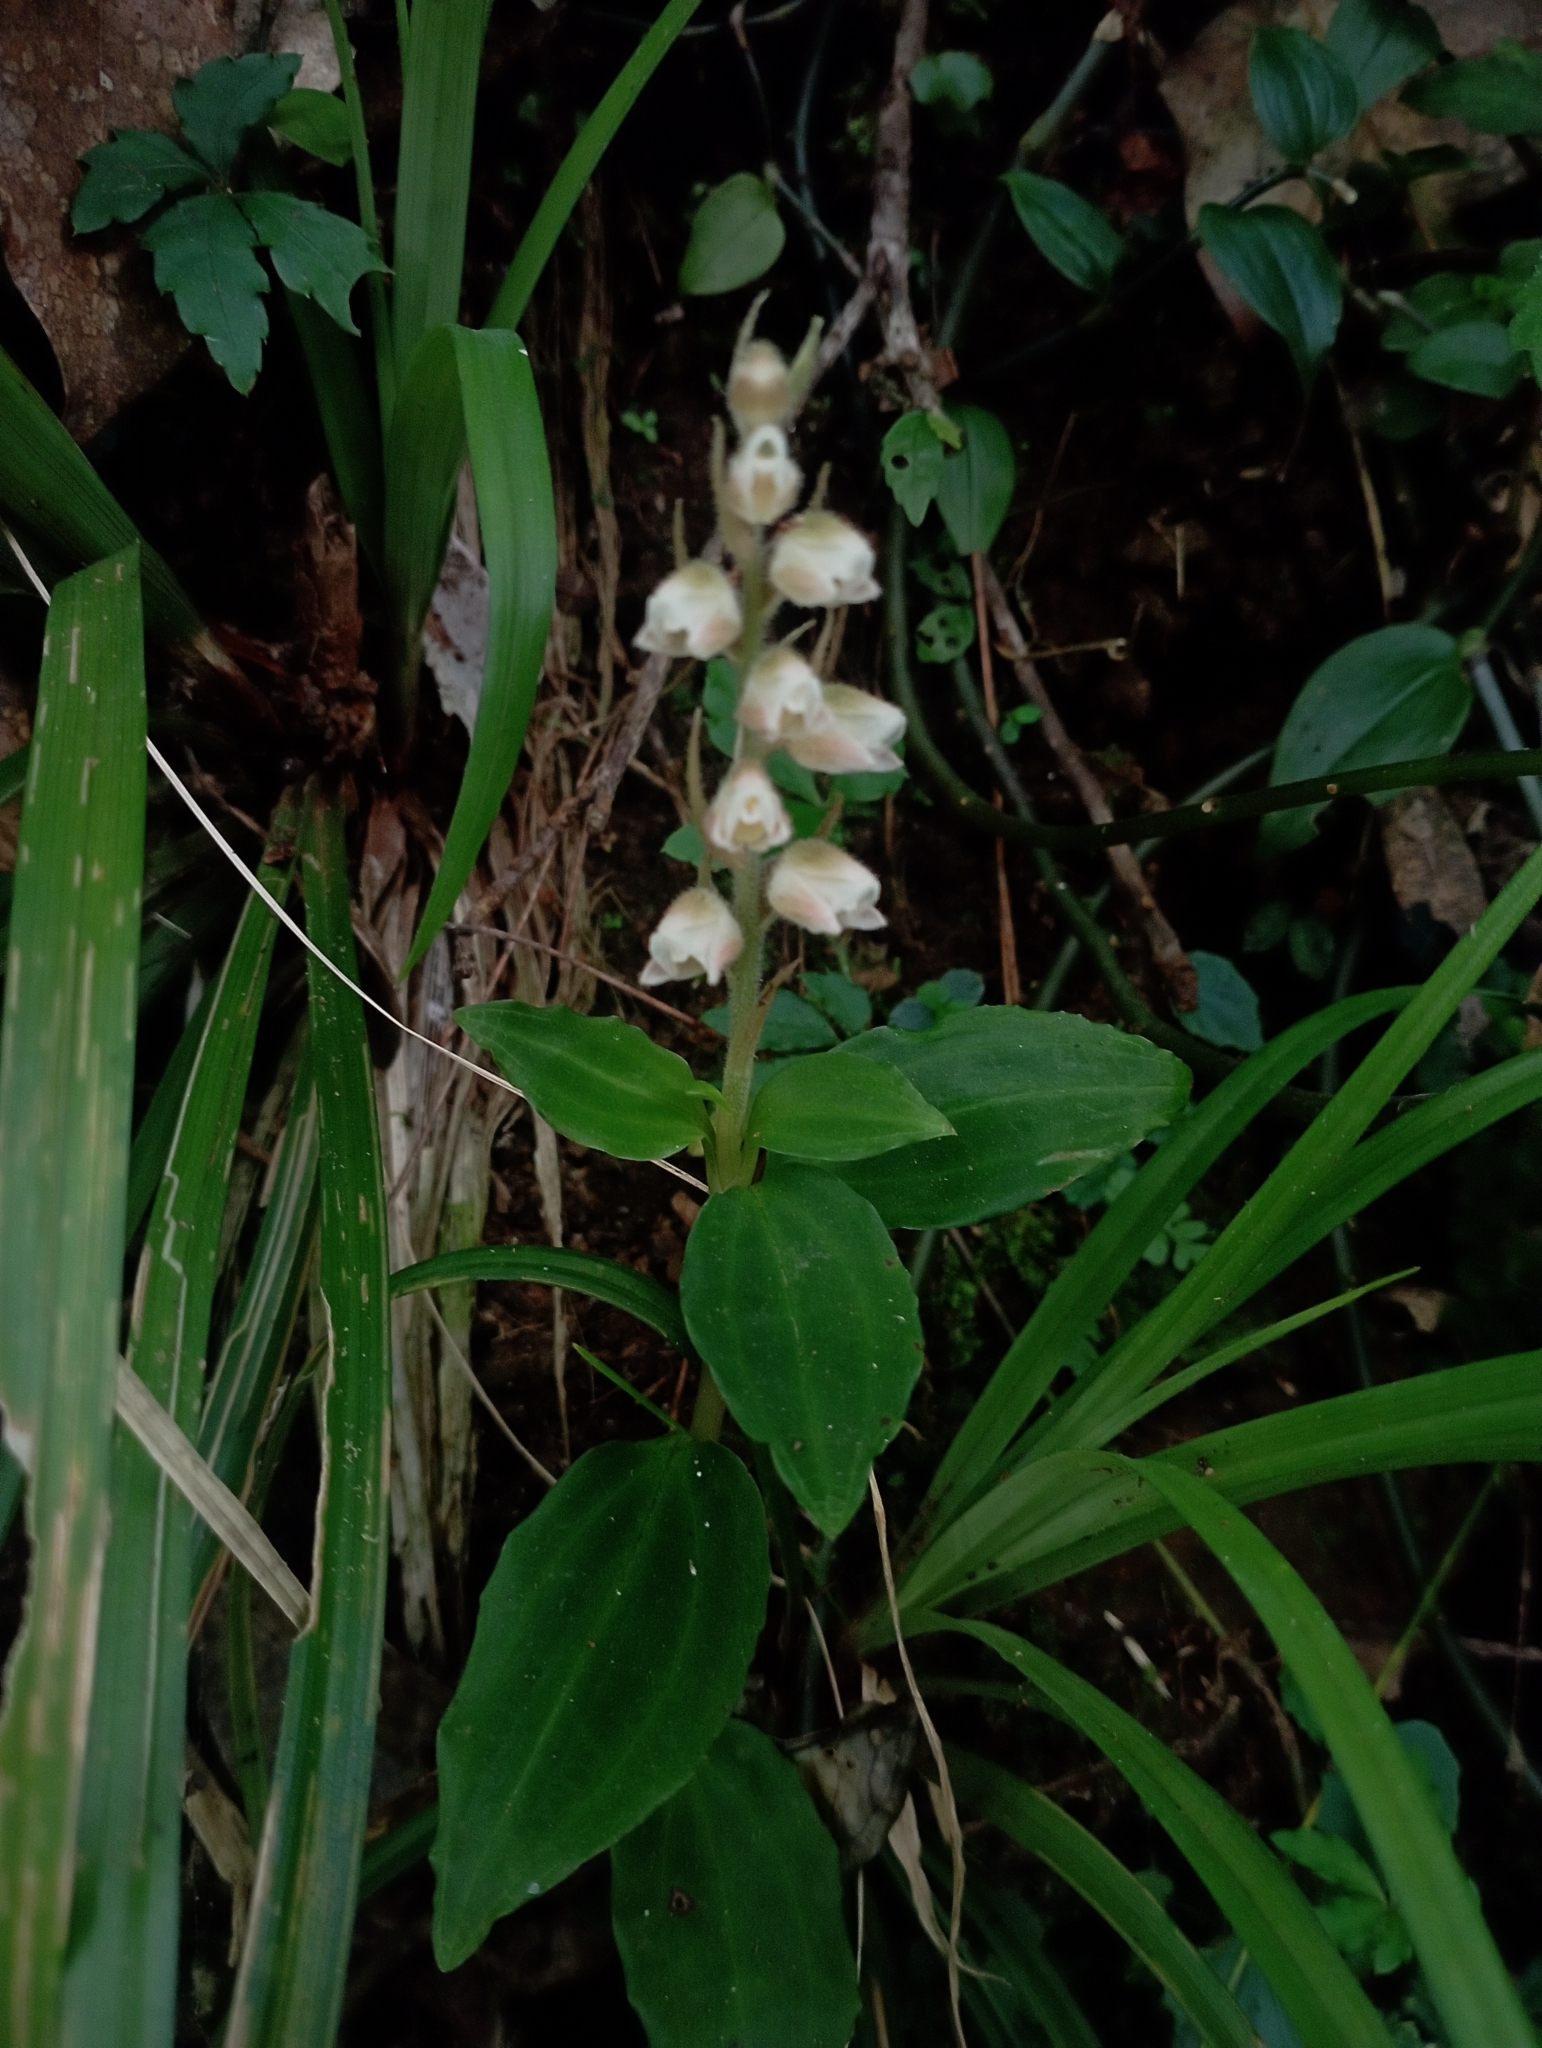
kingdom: Plantae
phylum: Tracheophyta
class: Liliopsida
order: Asparagales
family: Orchidaceae
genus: Goodyera
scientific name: Goodyera foliosa
